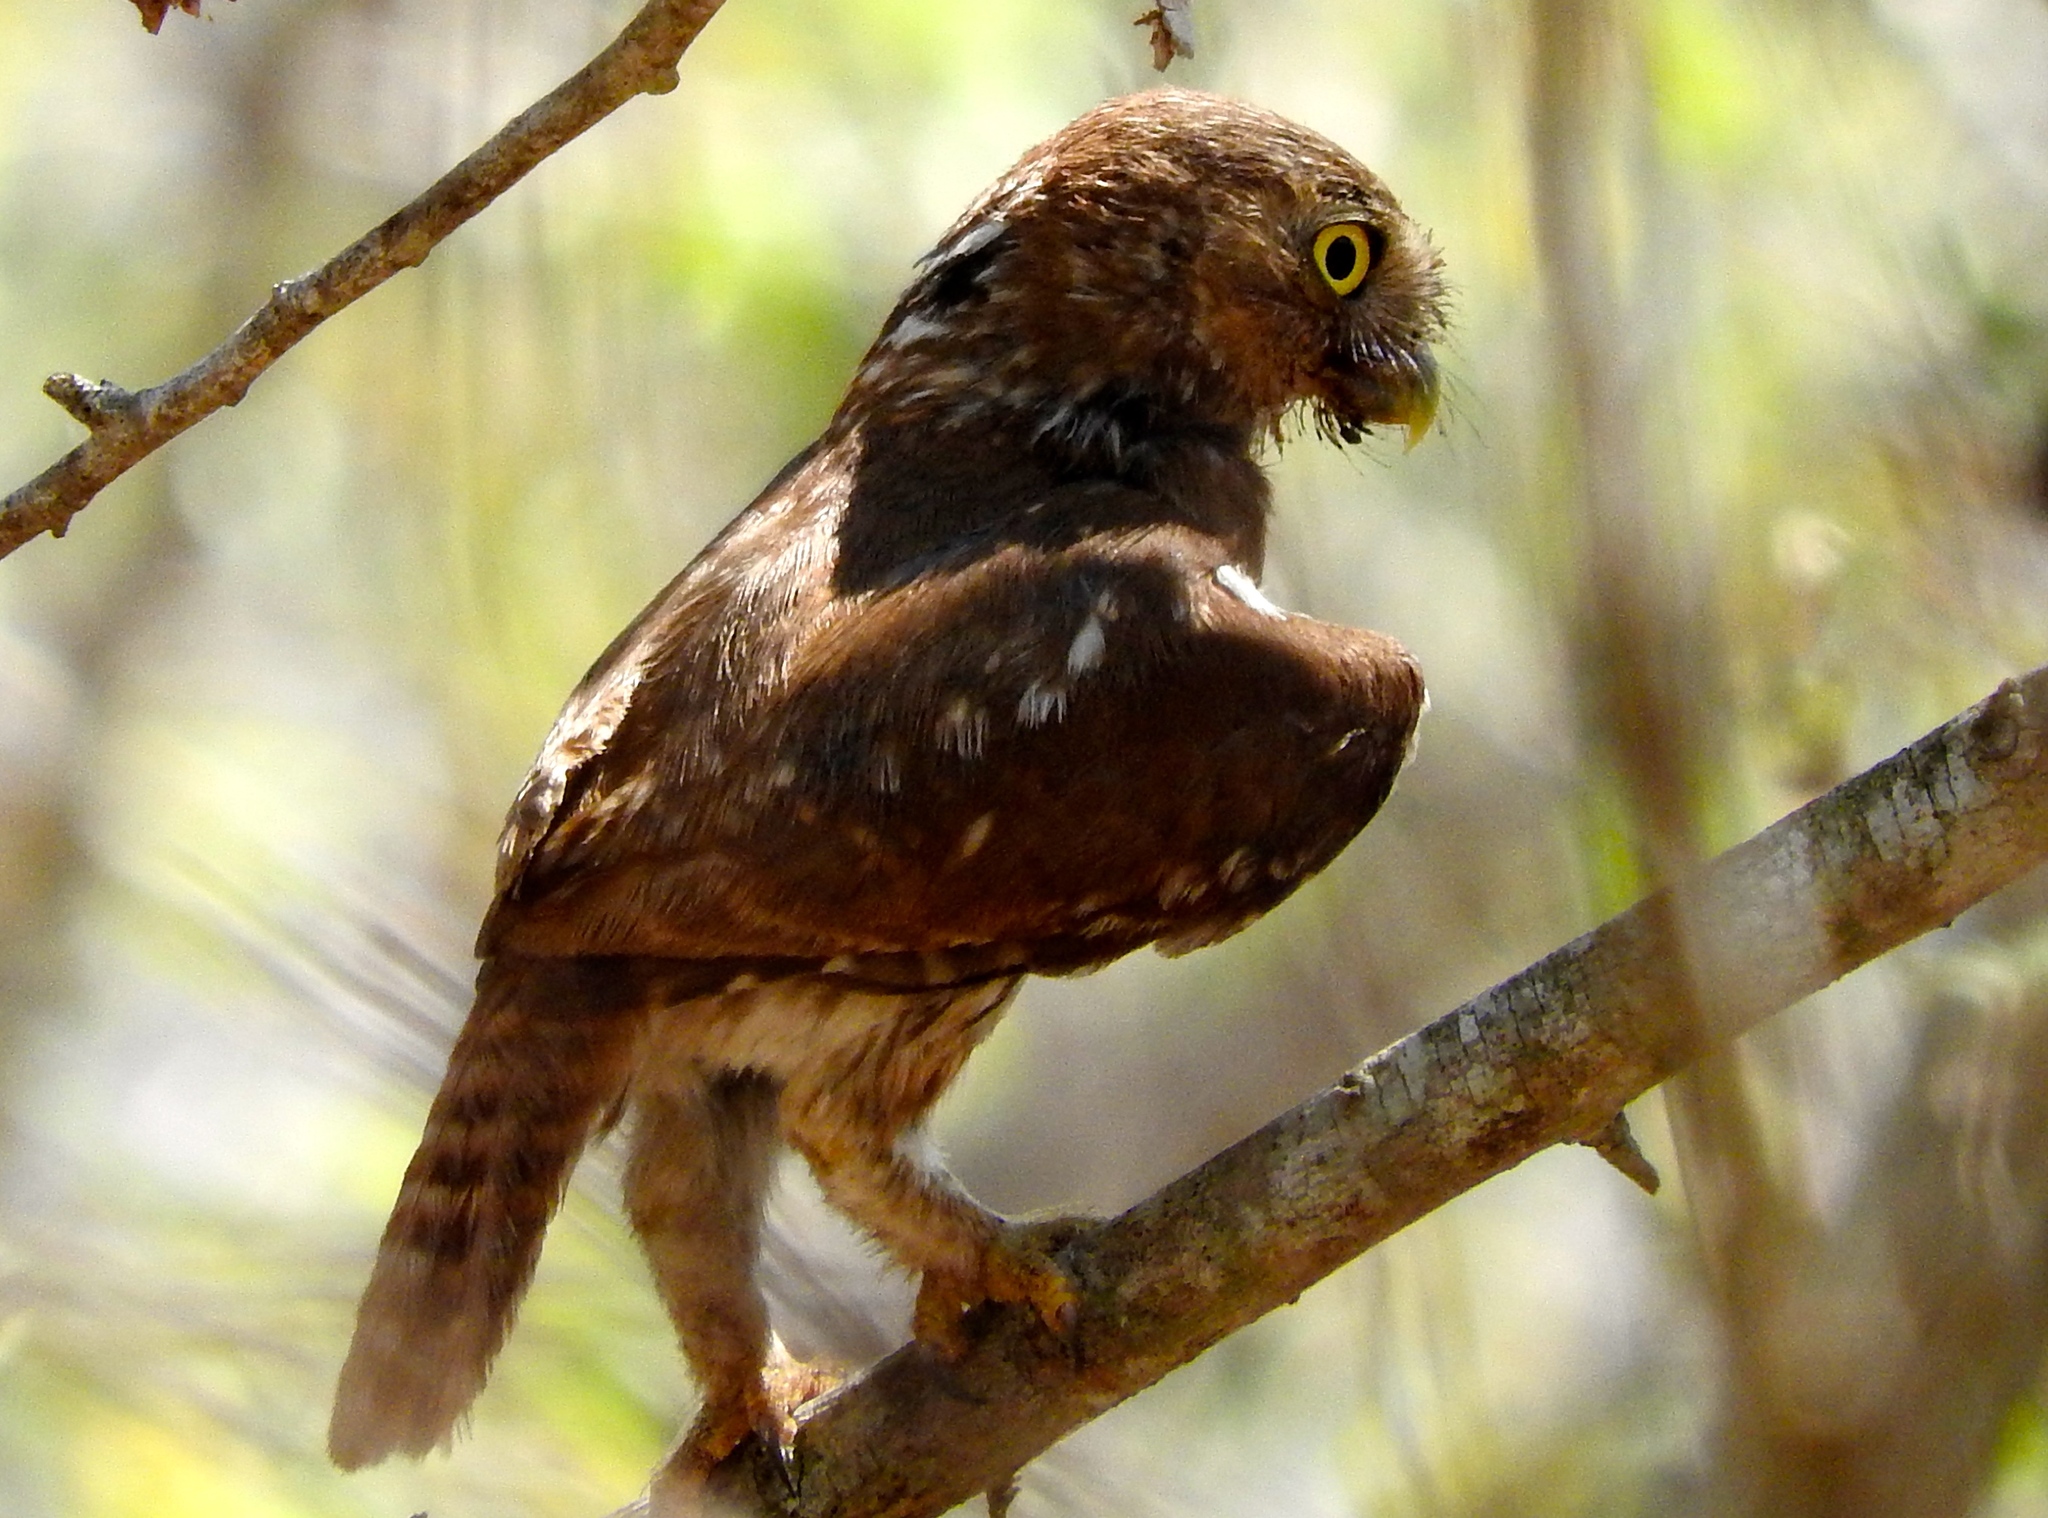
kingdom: Animalia
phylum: Chordata
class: Aves
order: Strigiformes
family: Strigidae
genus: Glaucidium
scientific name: Glaucidium brasilianum
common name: Ferruginous pygmy-owl
